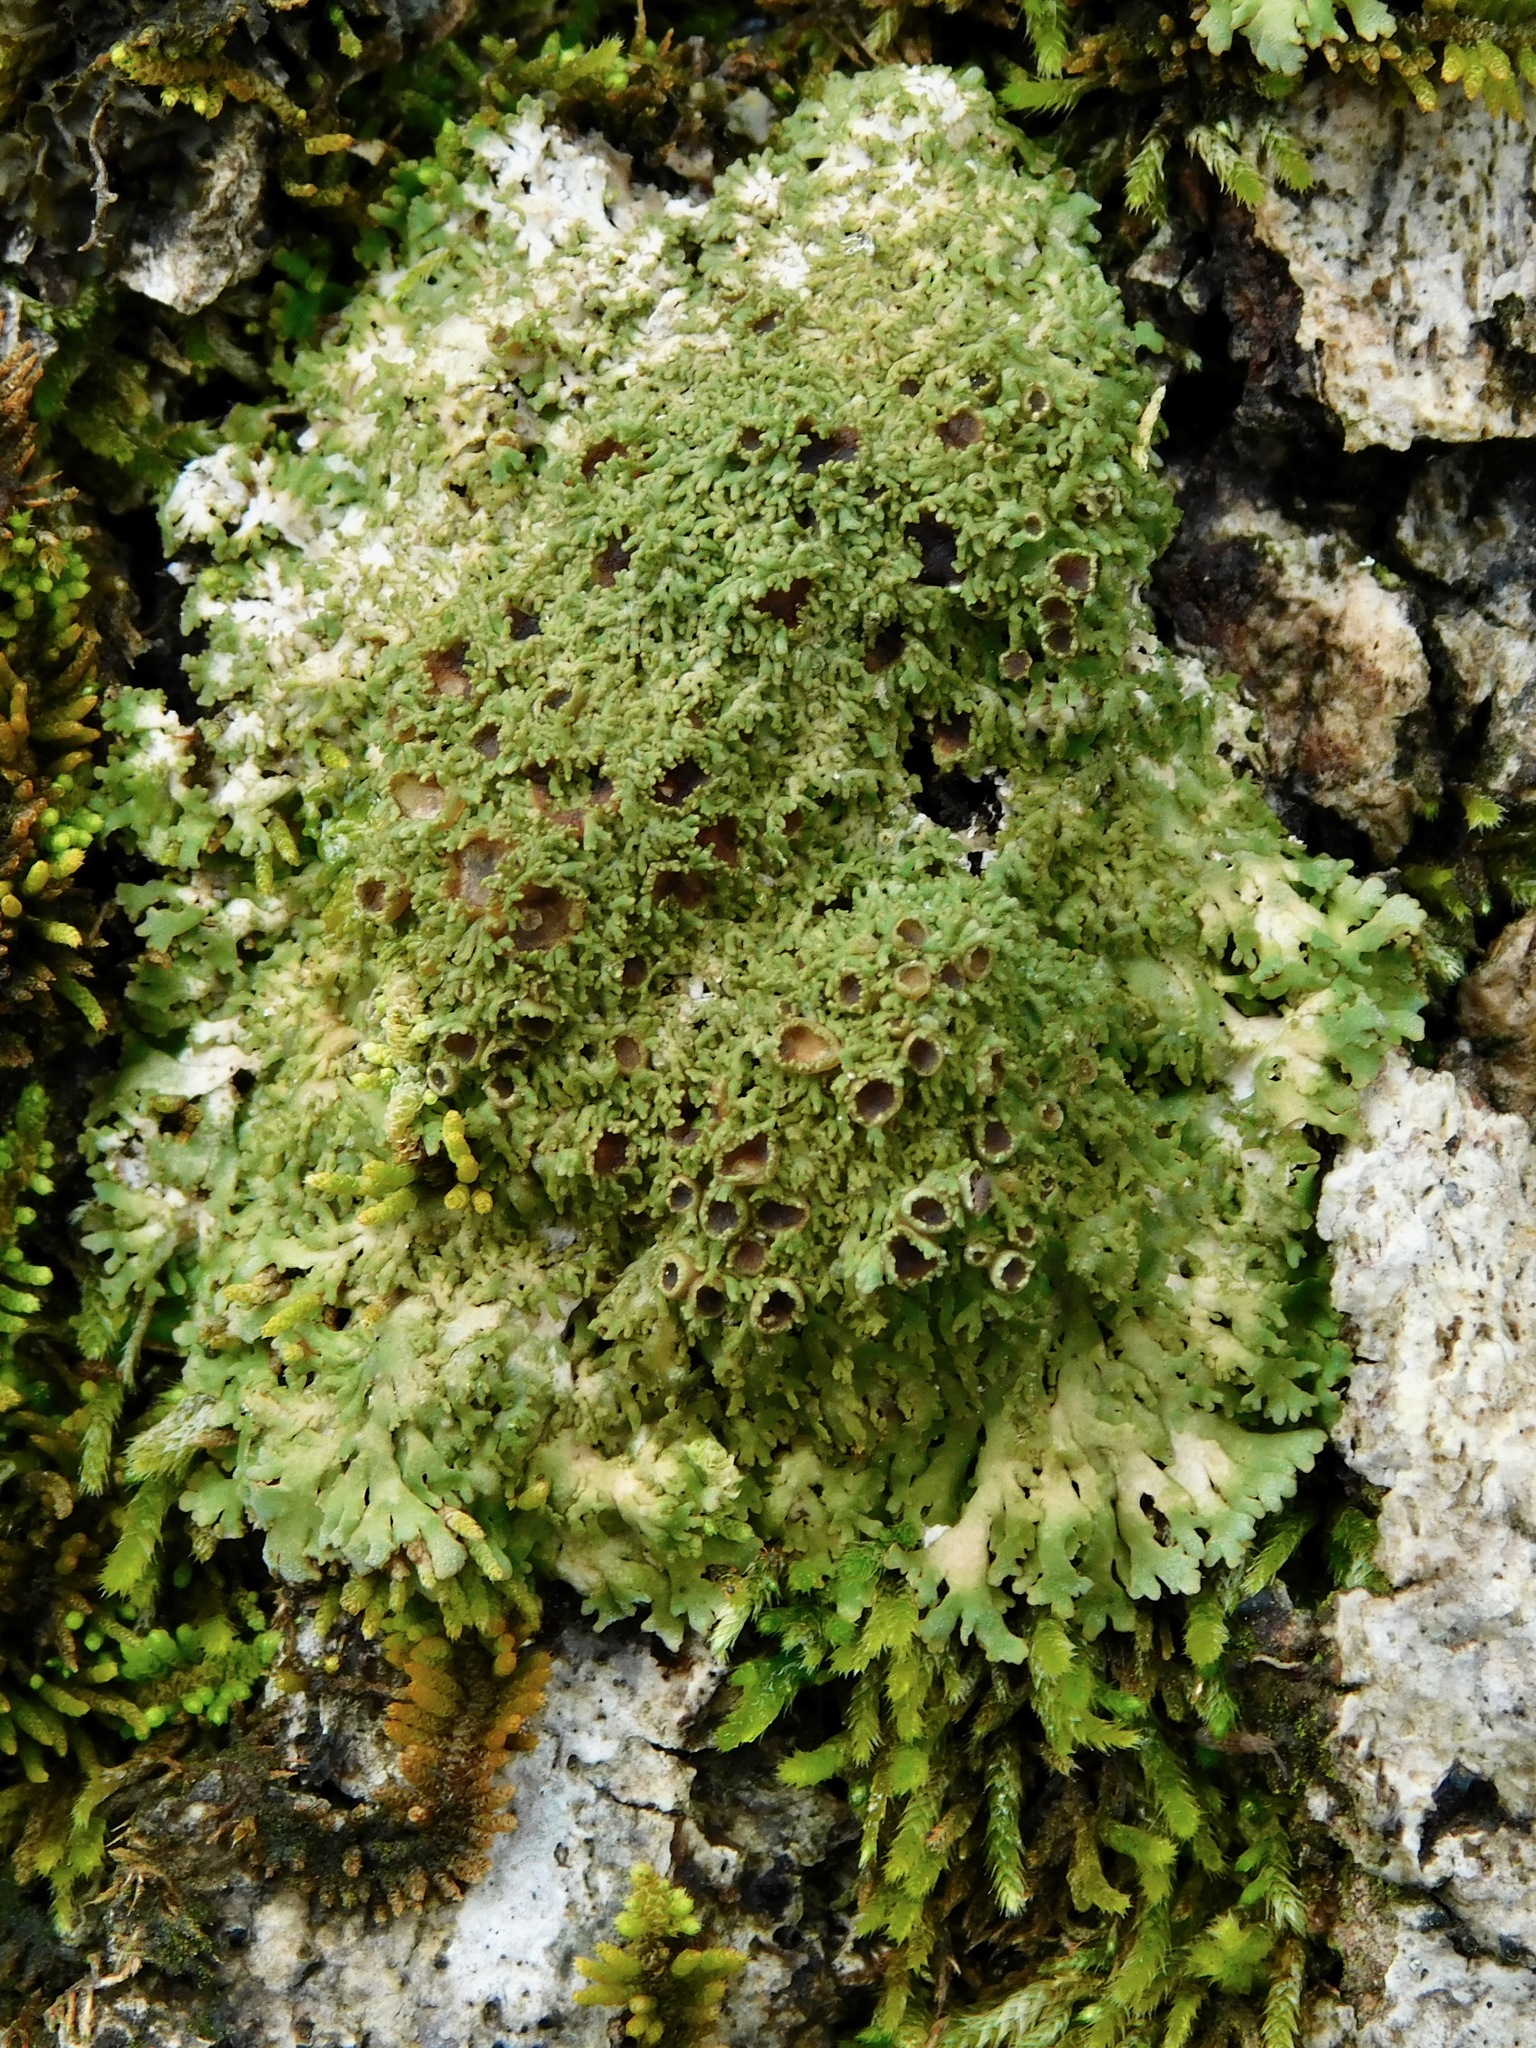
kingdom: Fungi
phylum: Ascomycota
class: Lecanoromycetes
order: Caliciales
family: Physciaceae
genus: Kurokawia
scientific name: Kurokawia palmulata
